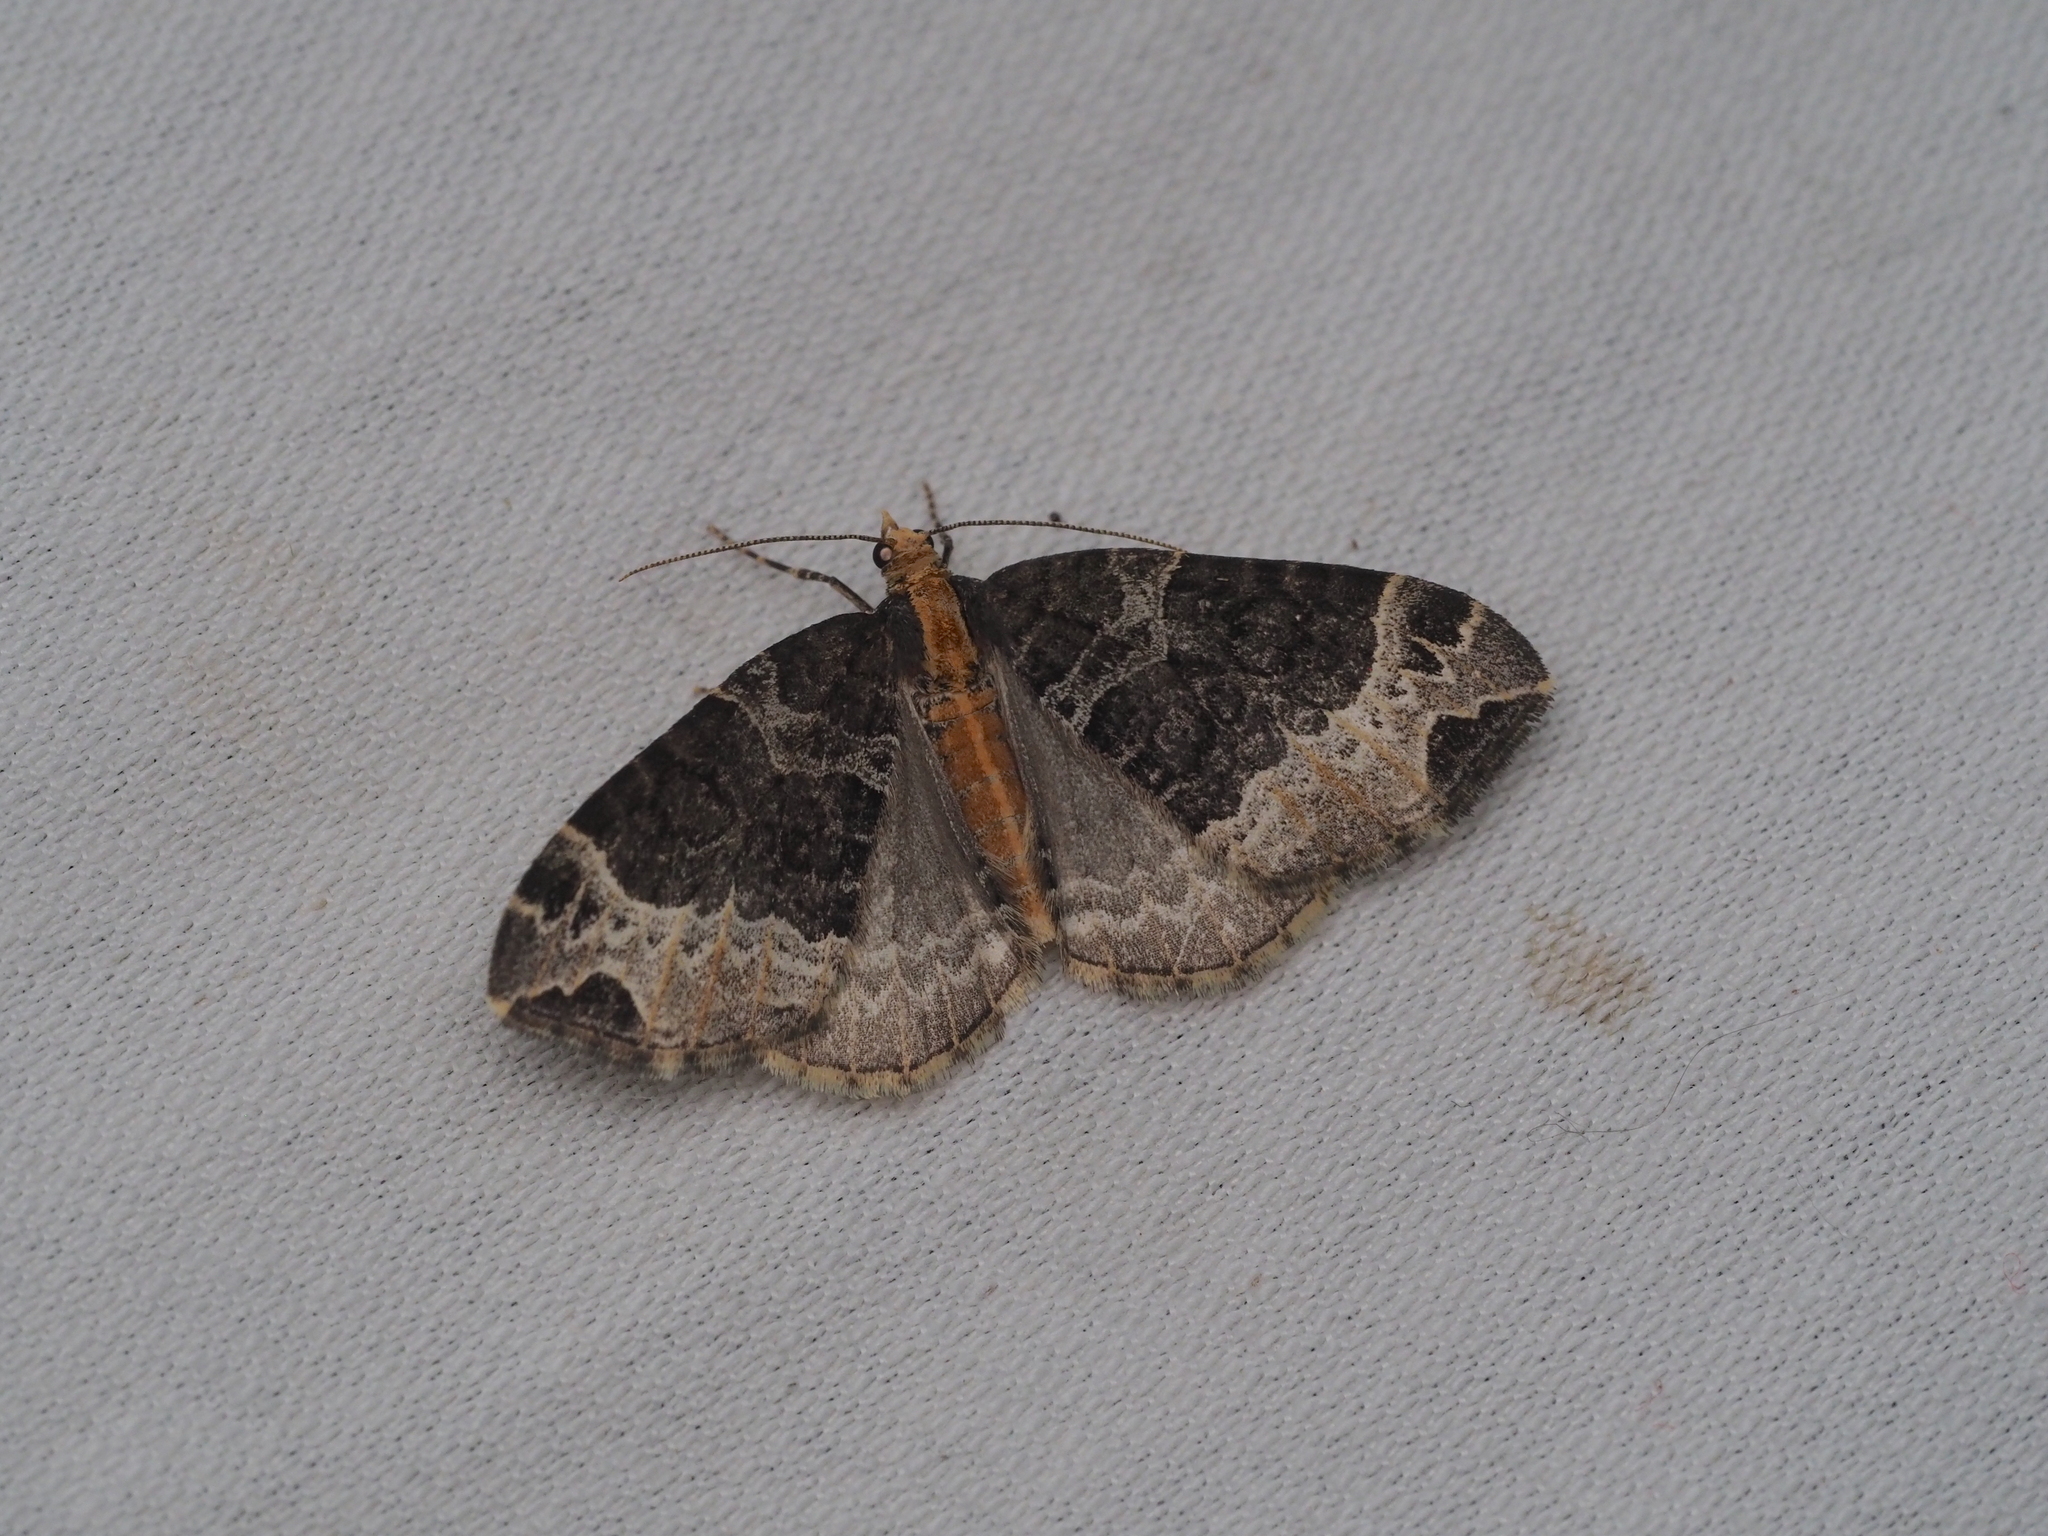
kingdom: Animalia
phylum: Arthropoda
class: Insecta
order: Lepidoptera
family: Geometridae
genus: Ecliptopera
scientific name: Ecliptopera capitata
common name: Yellow-headed phoenix
